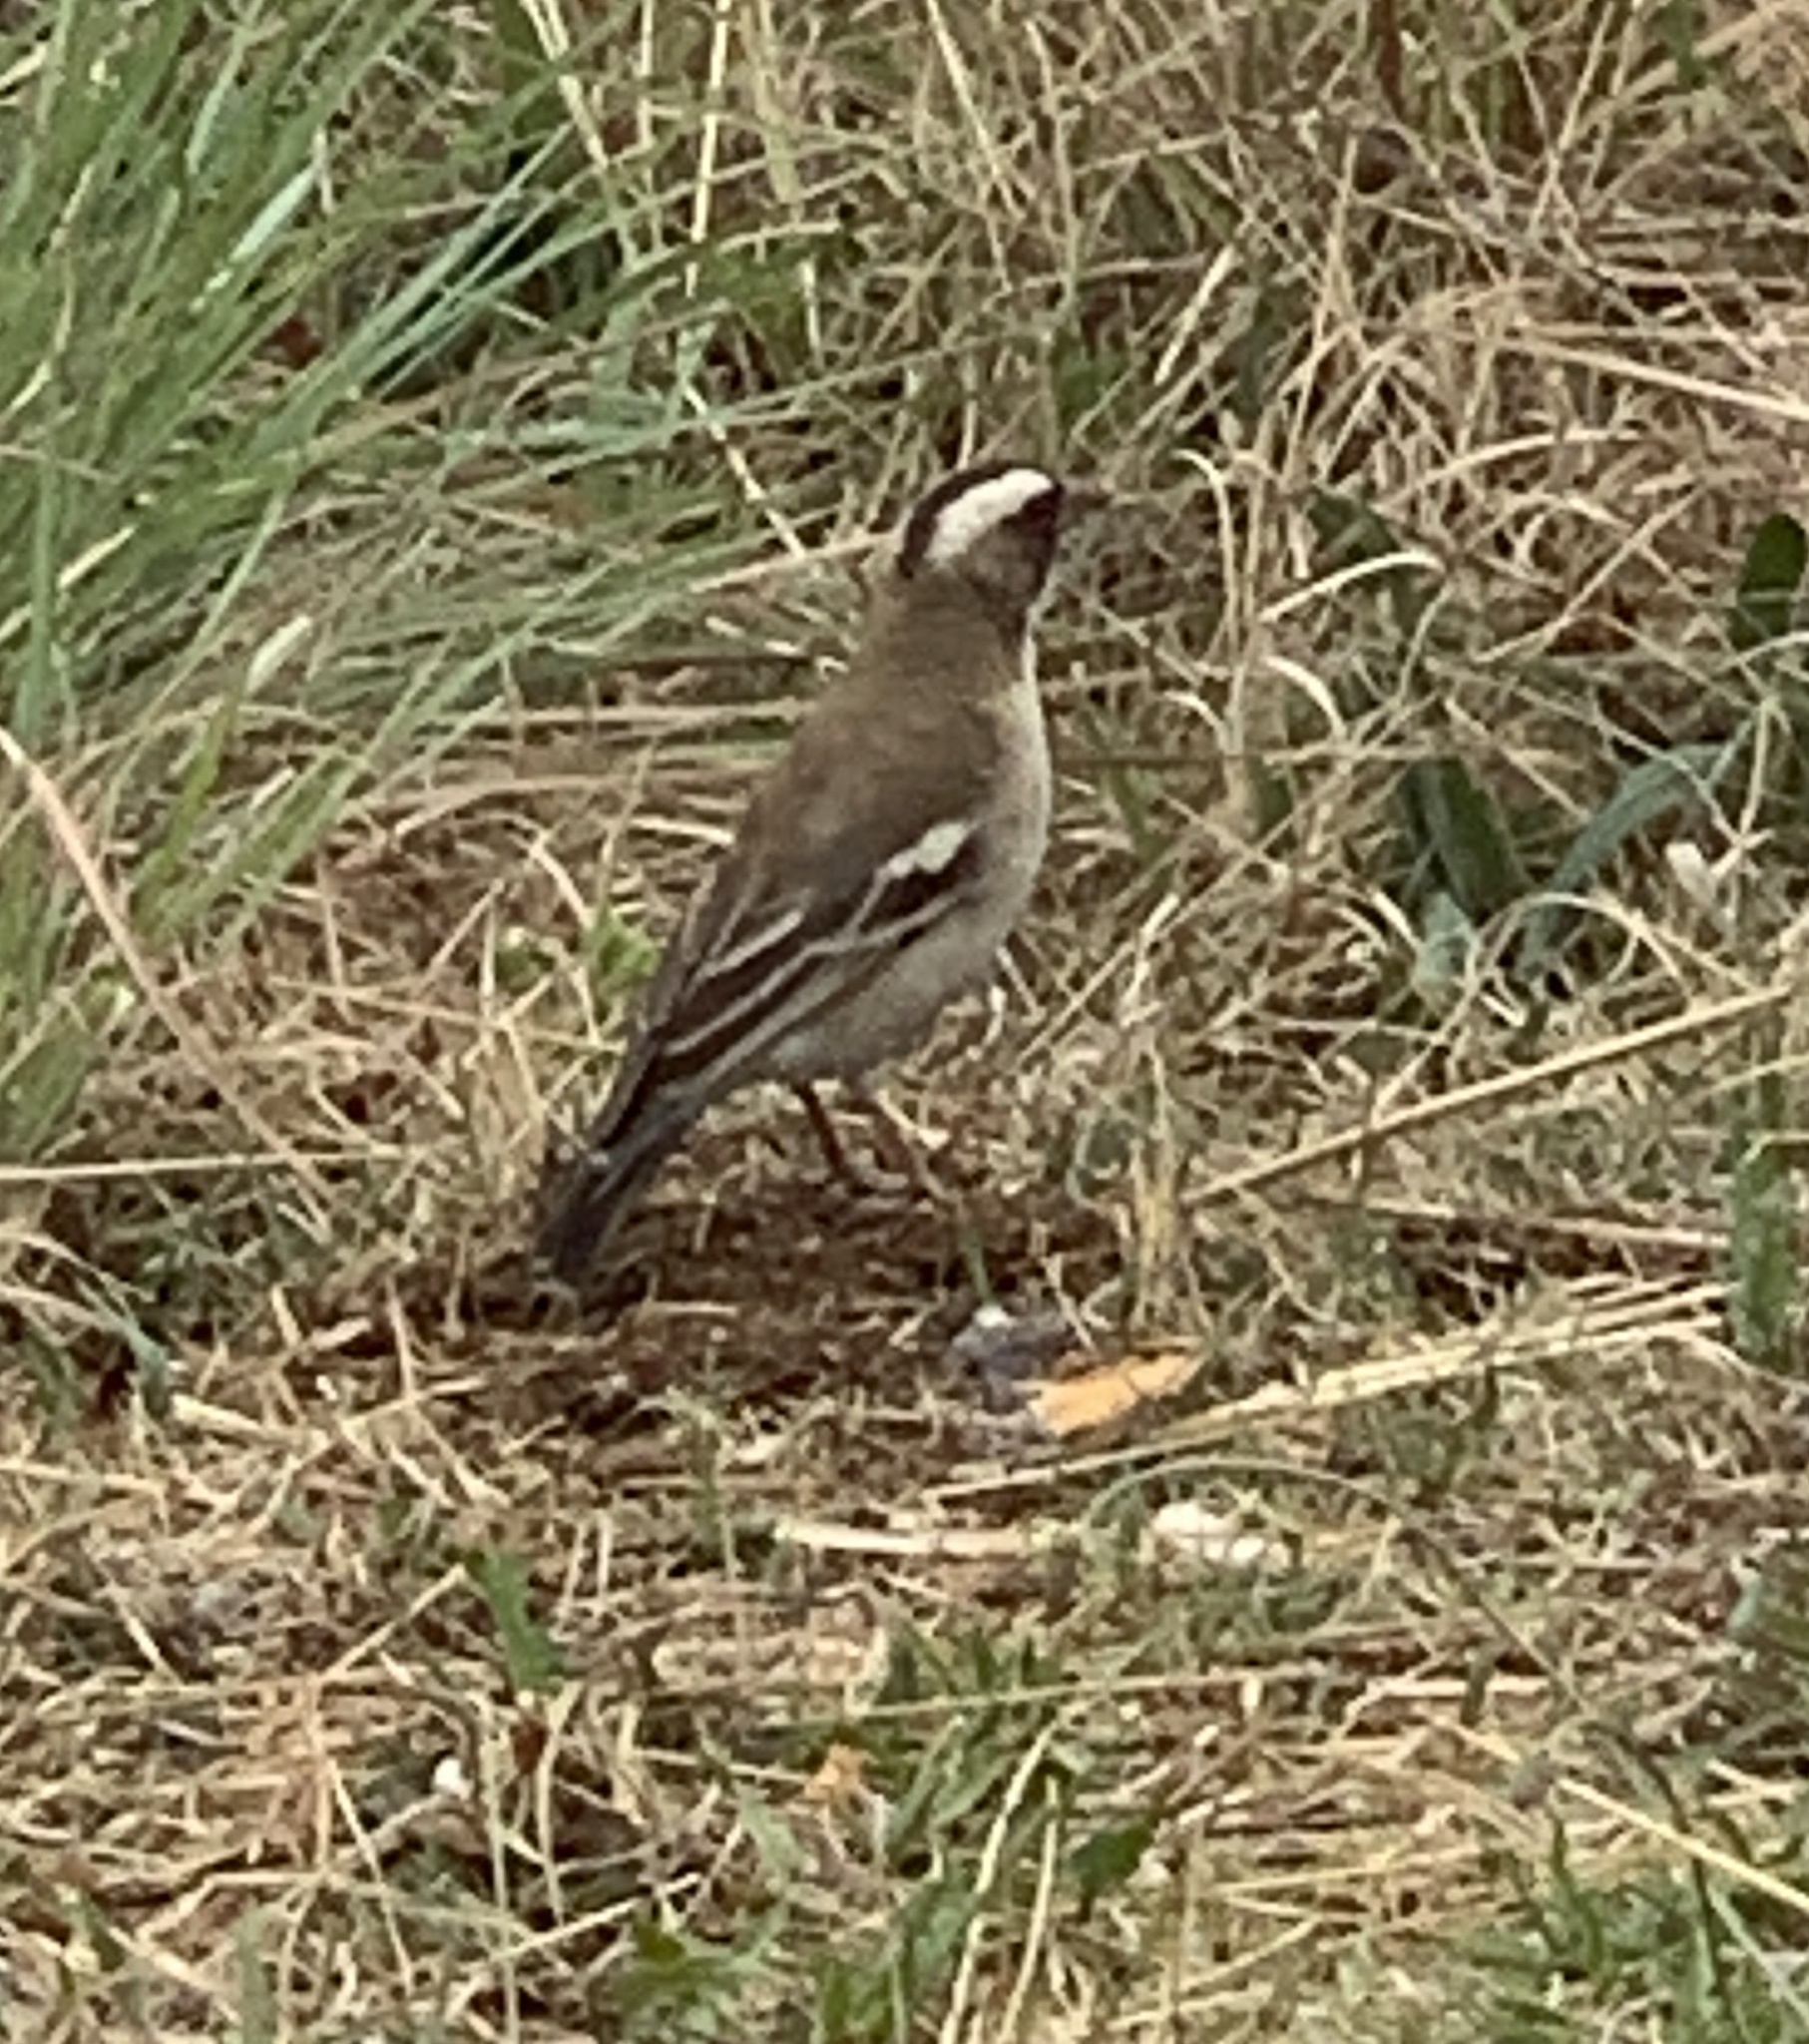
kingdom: Animalia
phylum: Chordata
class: Aves
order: Passeriformes
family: Passeridae
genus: Plocepasser
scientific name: Plocepasser mahali
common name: White-browed sparrow-weaver
